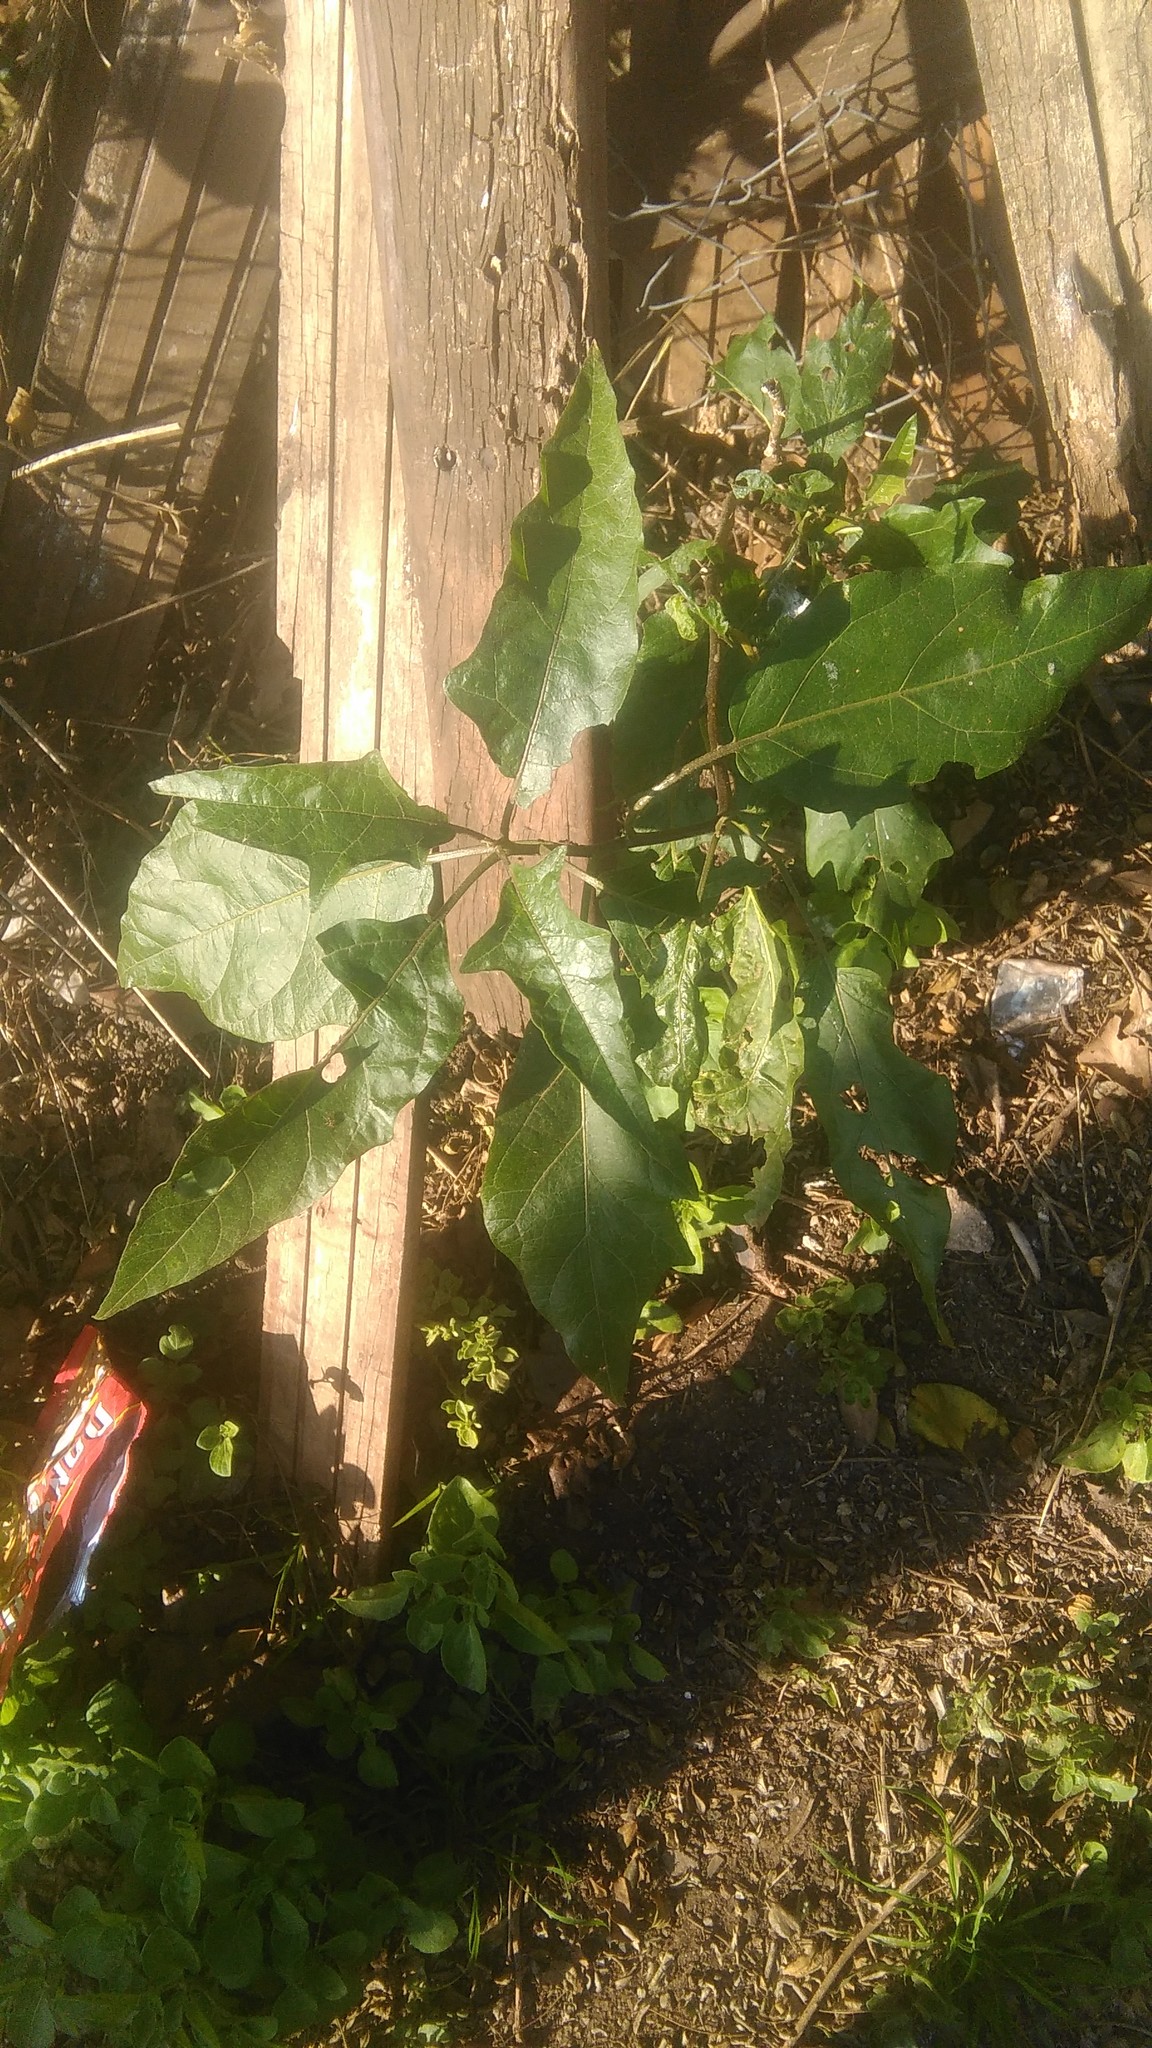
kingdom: Plantae
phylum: Tracheophyta
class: Magnoliopsida
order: Solanales
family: Solanaceae
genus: Solanum
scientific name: Solanum bonariense
